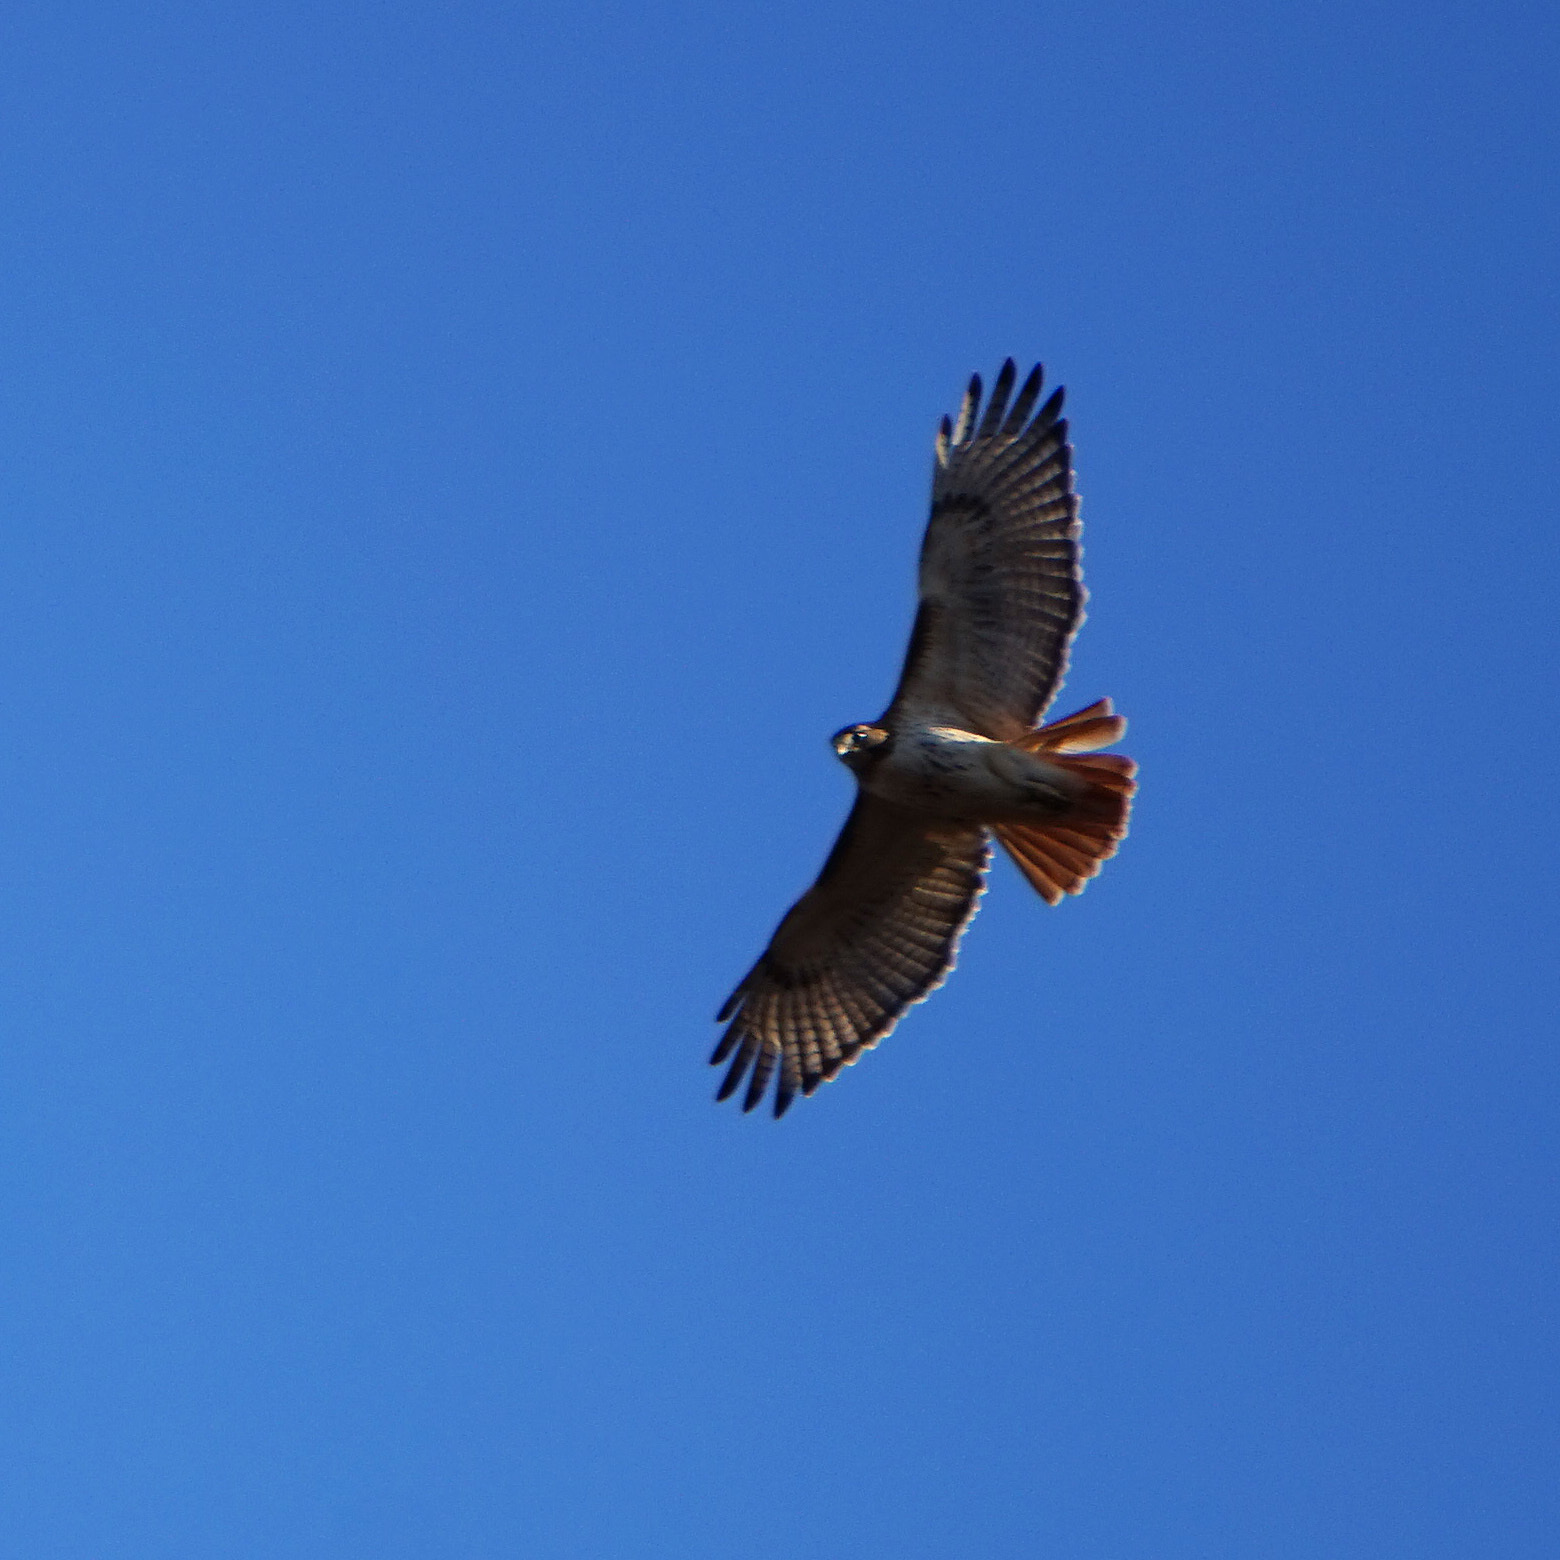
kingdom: Animalia
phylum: Chordata
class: Aves
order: Accipitriformes
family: Accipitridae
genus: Buteo
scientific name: Buteo jamaicensis
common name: Red-tailed hawk
